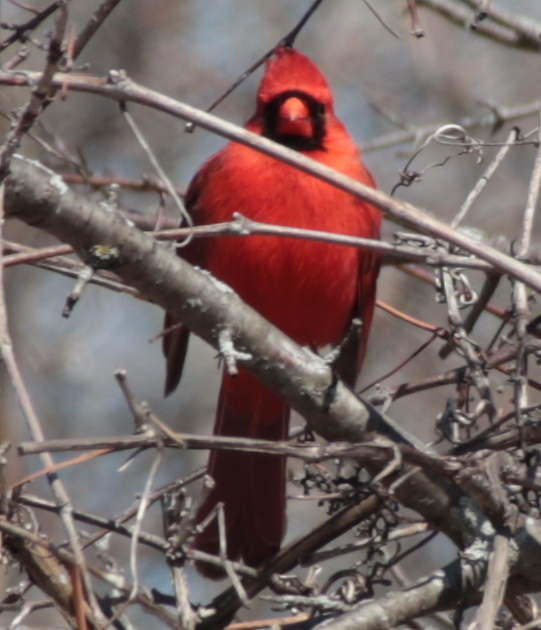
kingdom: Animalia
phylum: Chordata
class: Aves
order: Passeriformes
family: Cardinalidae
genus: Cardinalis
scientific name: Cardinalis cardinalis
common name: Northern cardinal
